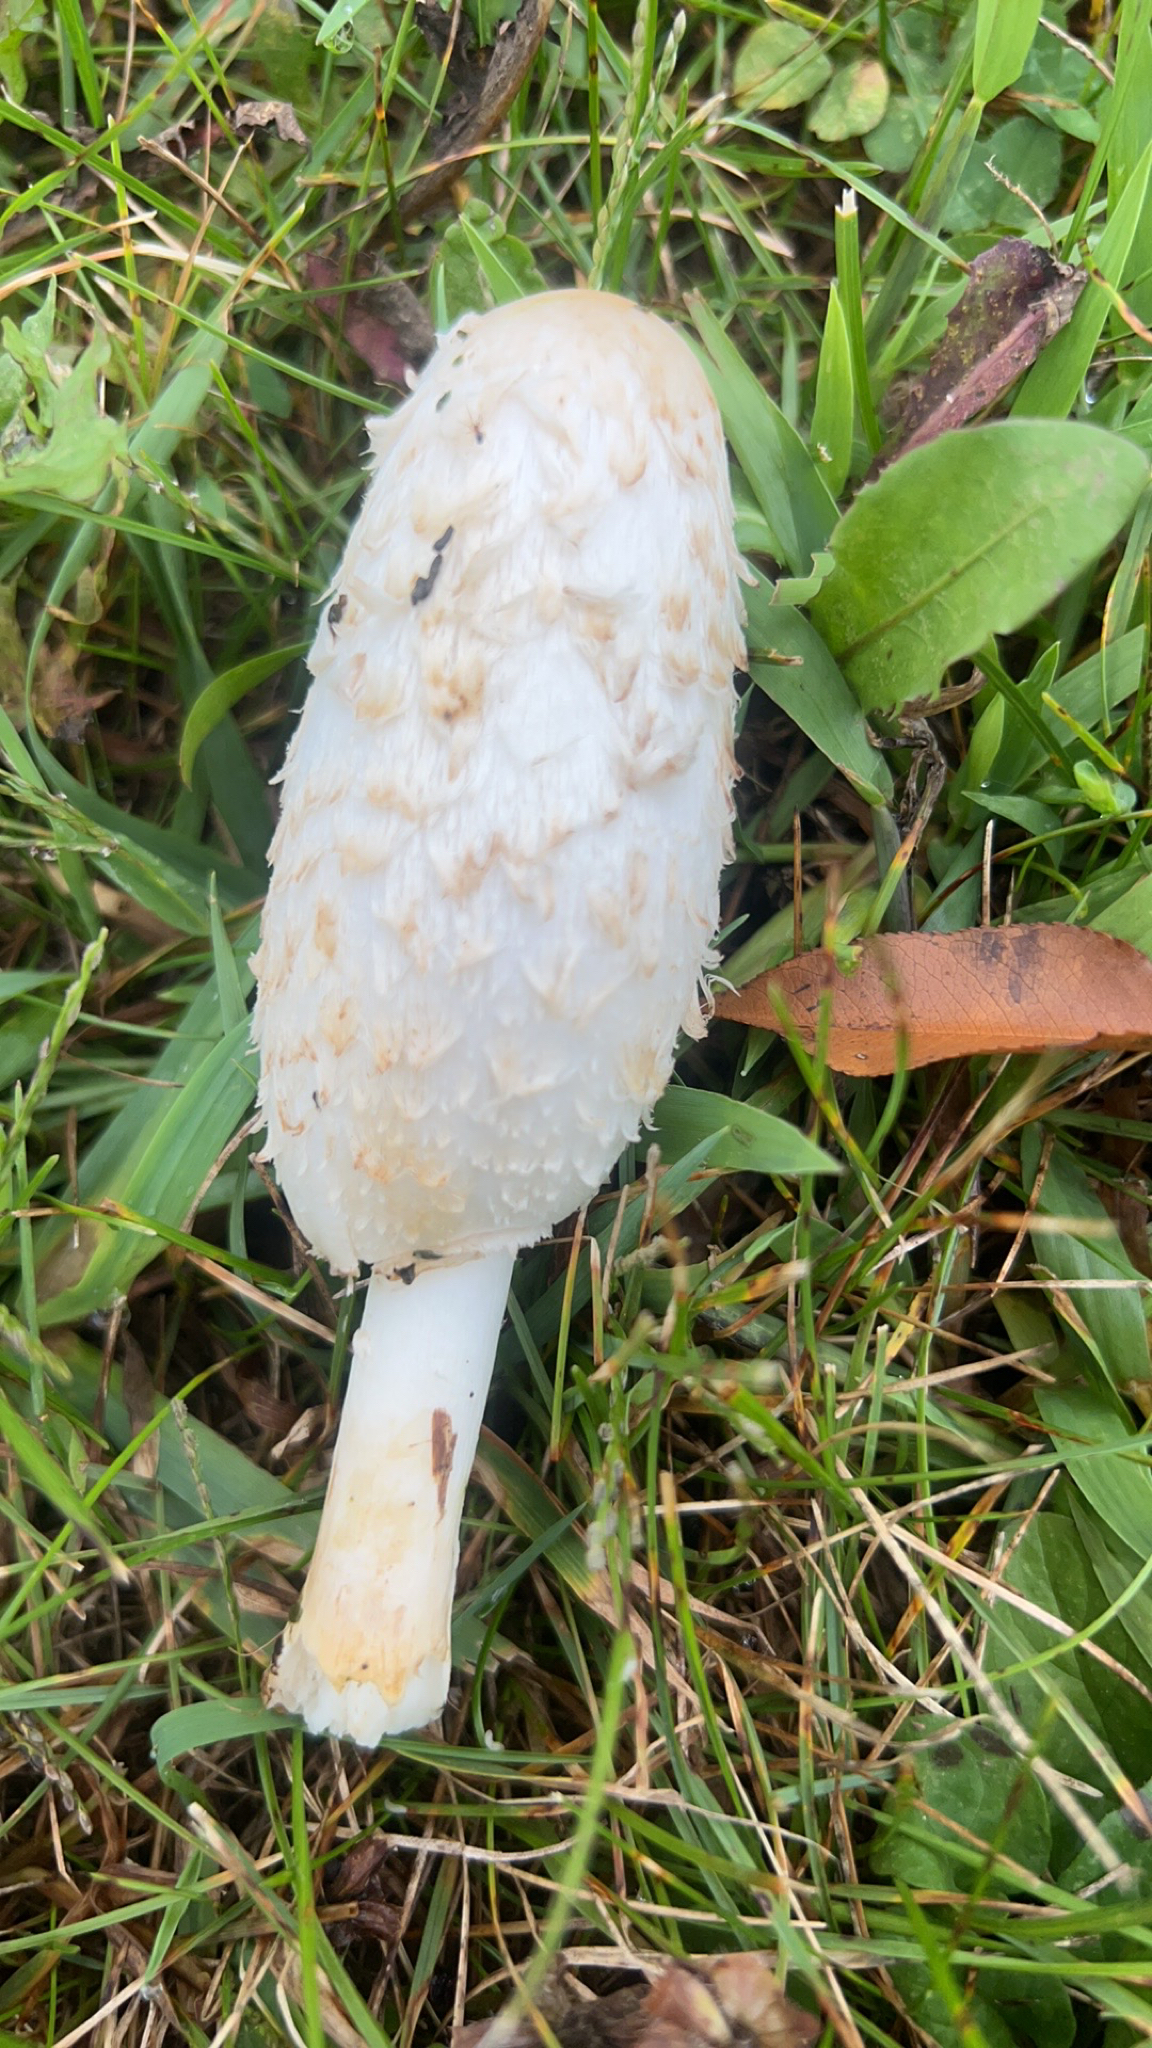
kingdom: Fungi
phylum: Basidiomycota
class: Agaricomycetes
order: Agaricales
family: Agaricaceae
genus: Coprinus
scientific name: Coprinus comatus
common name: Lawyer's wig
